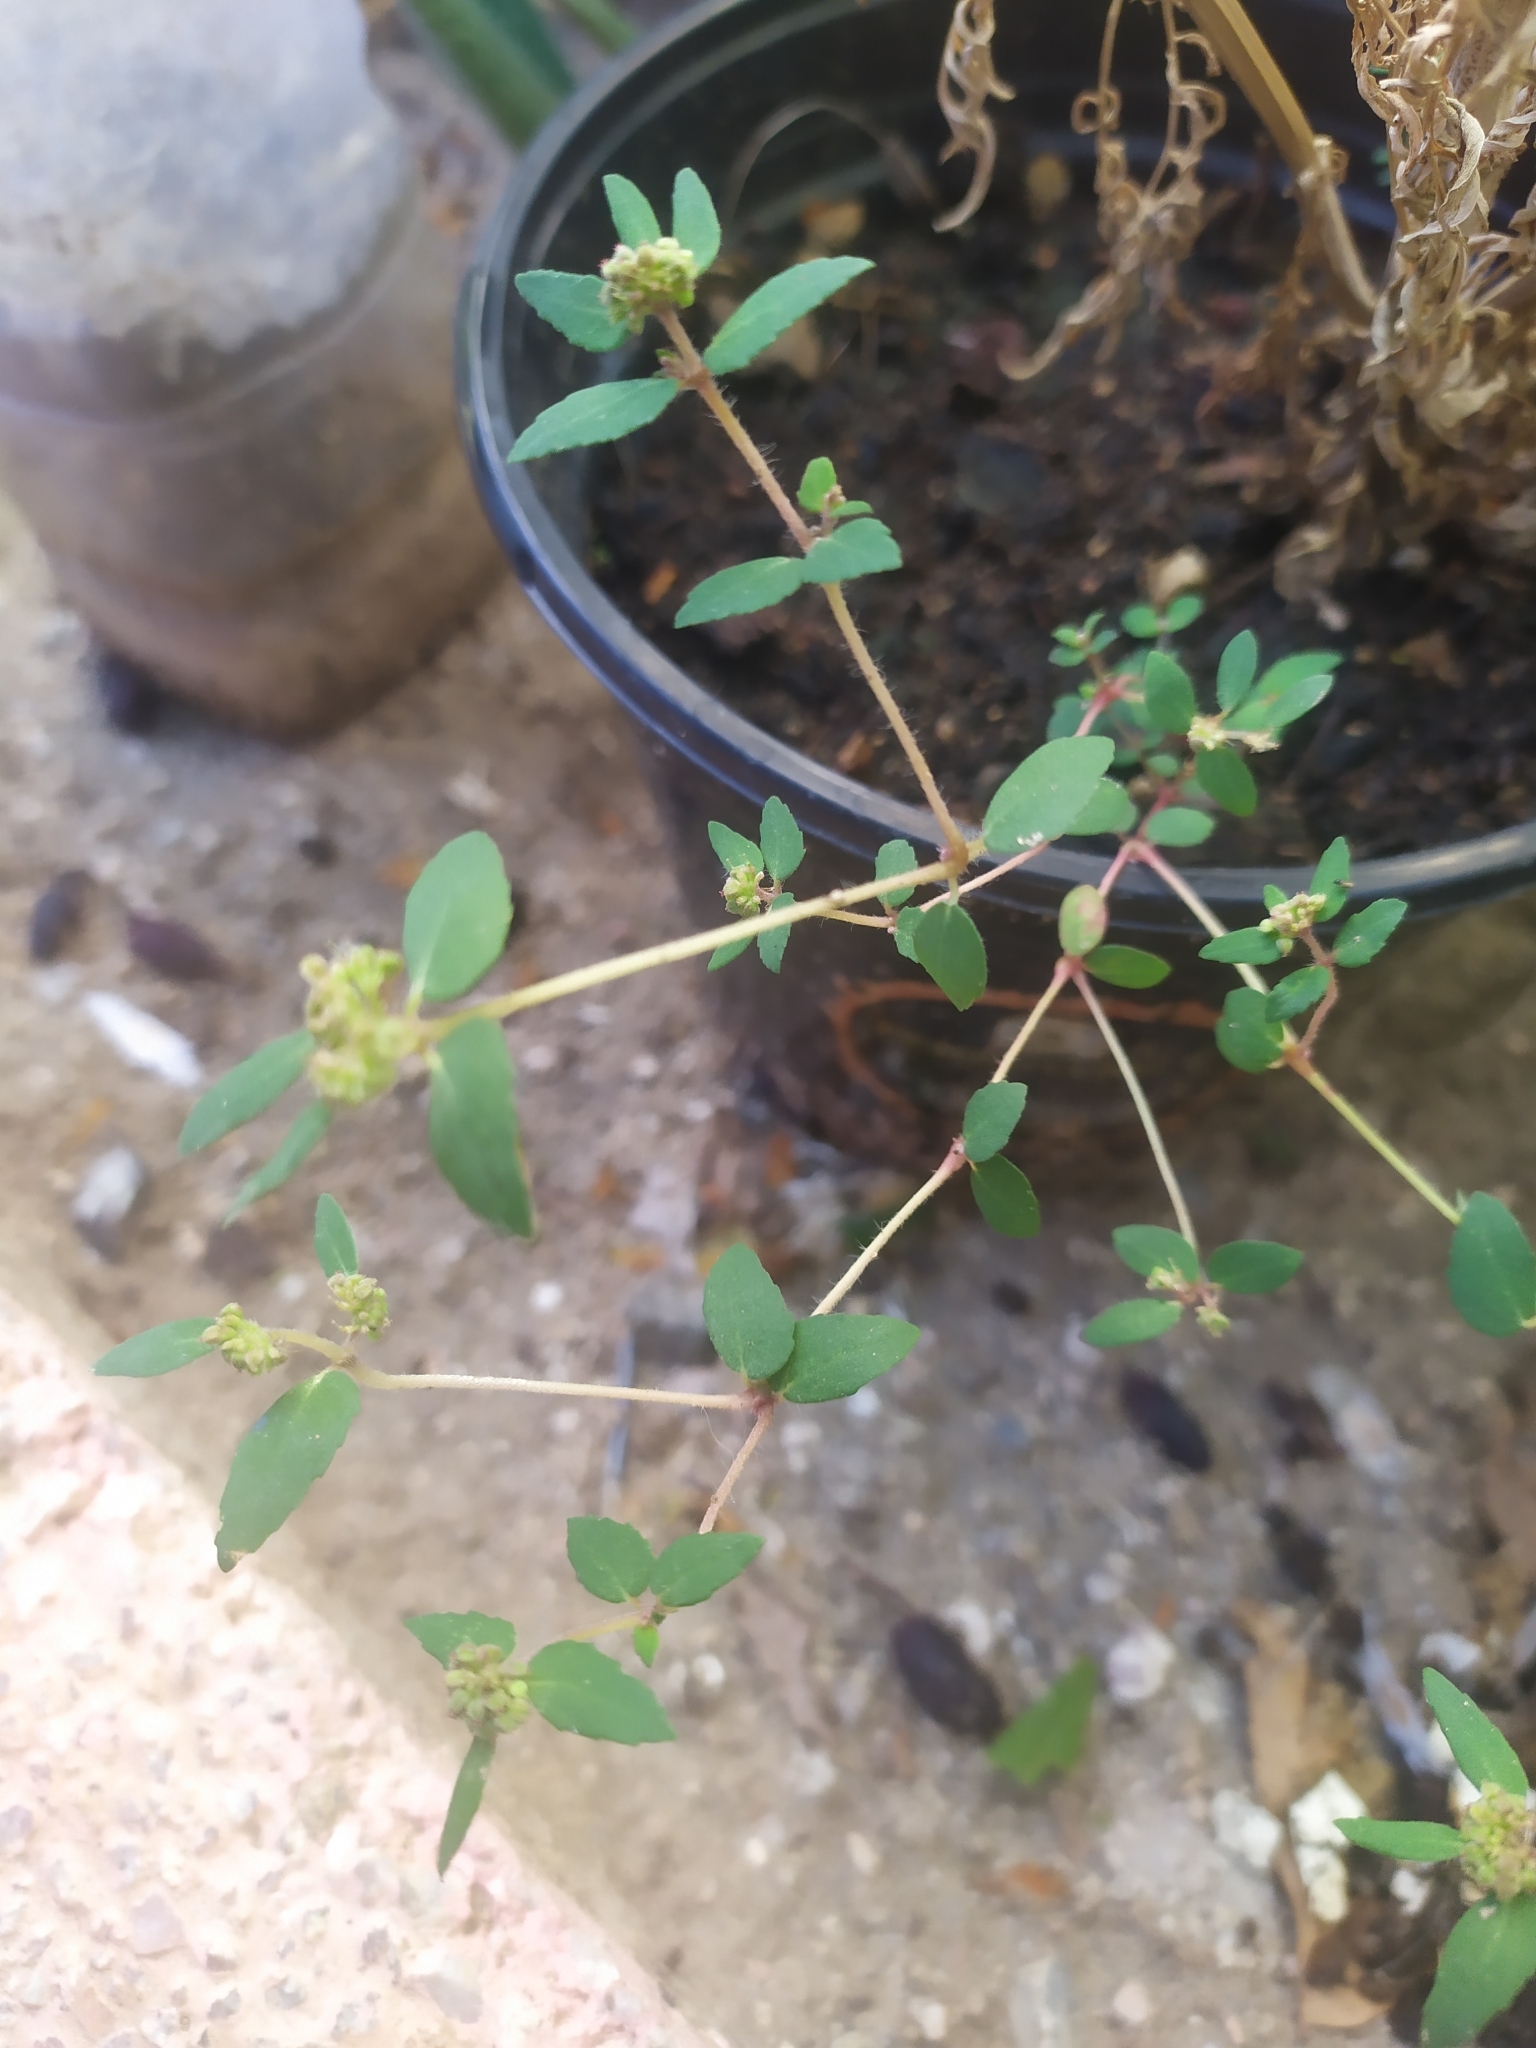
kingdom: Plantae
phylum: Tracheophyta
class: Magnoliopsida
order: Malpighiales
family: Euphorbiaceae
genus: Euphorbia
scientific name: Euphorbia ophthalmica
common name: Florida hammock sandmat
